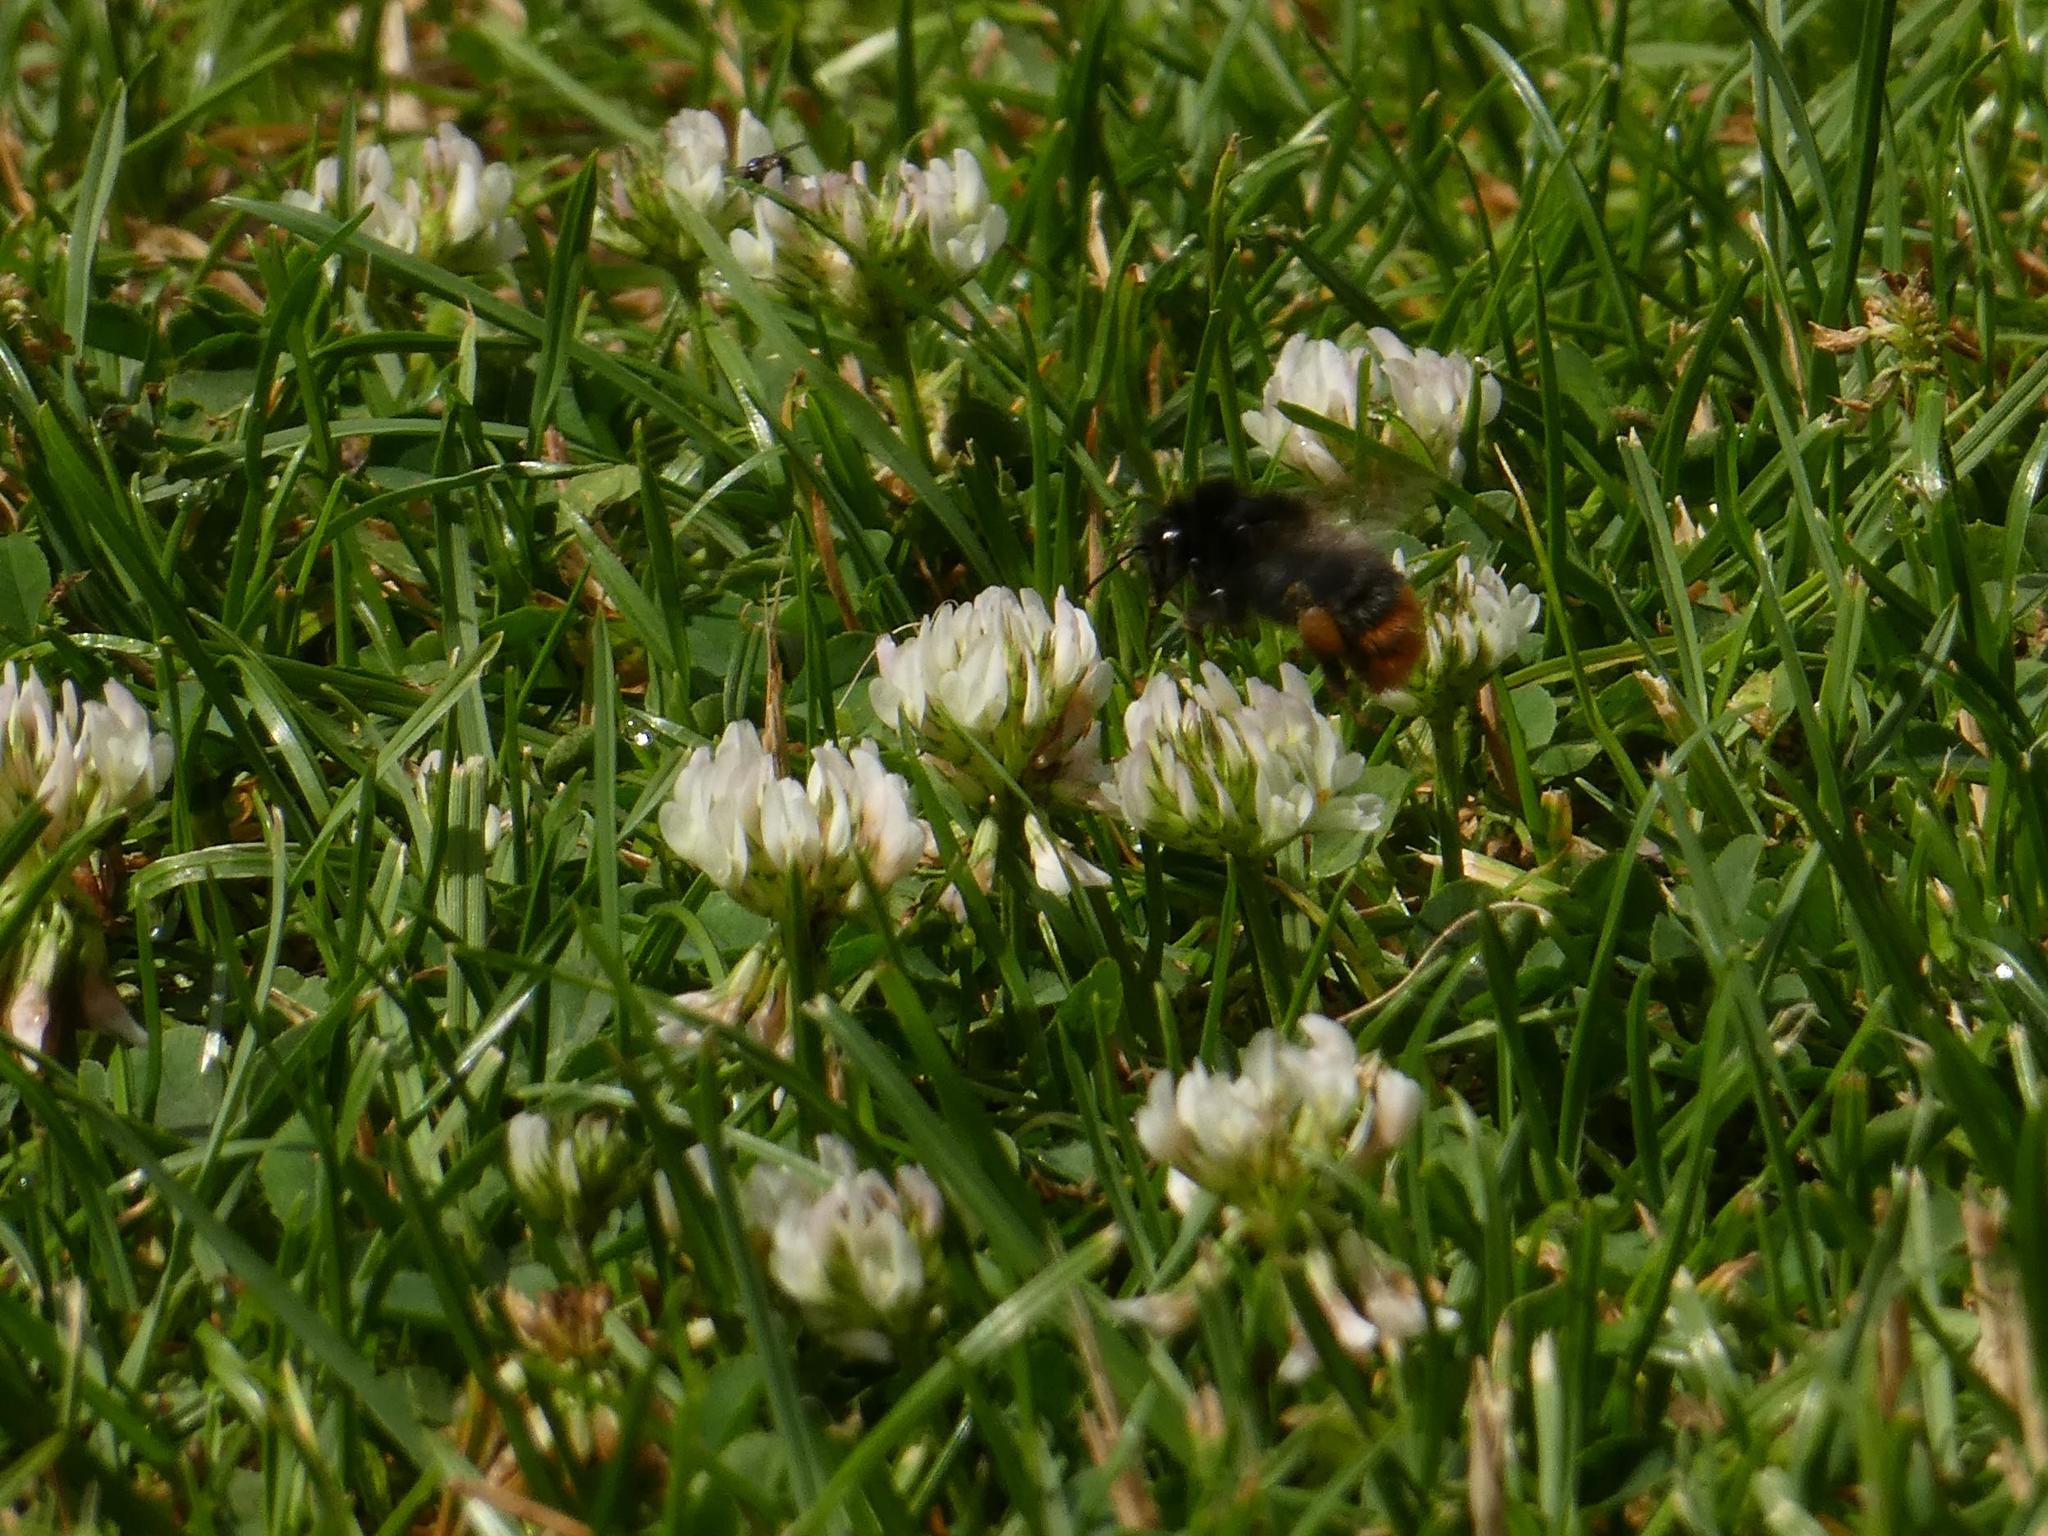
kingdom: Plantae
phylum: Tracheophyta
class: Magnoliopsida
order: Fabales
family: Fabaceae
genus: Trifolium
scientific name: Trifolium repens
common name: White clover
